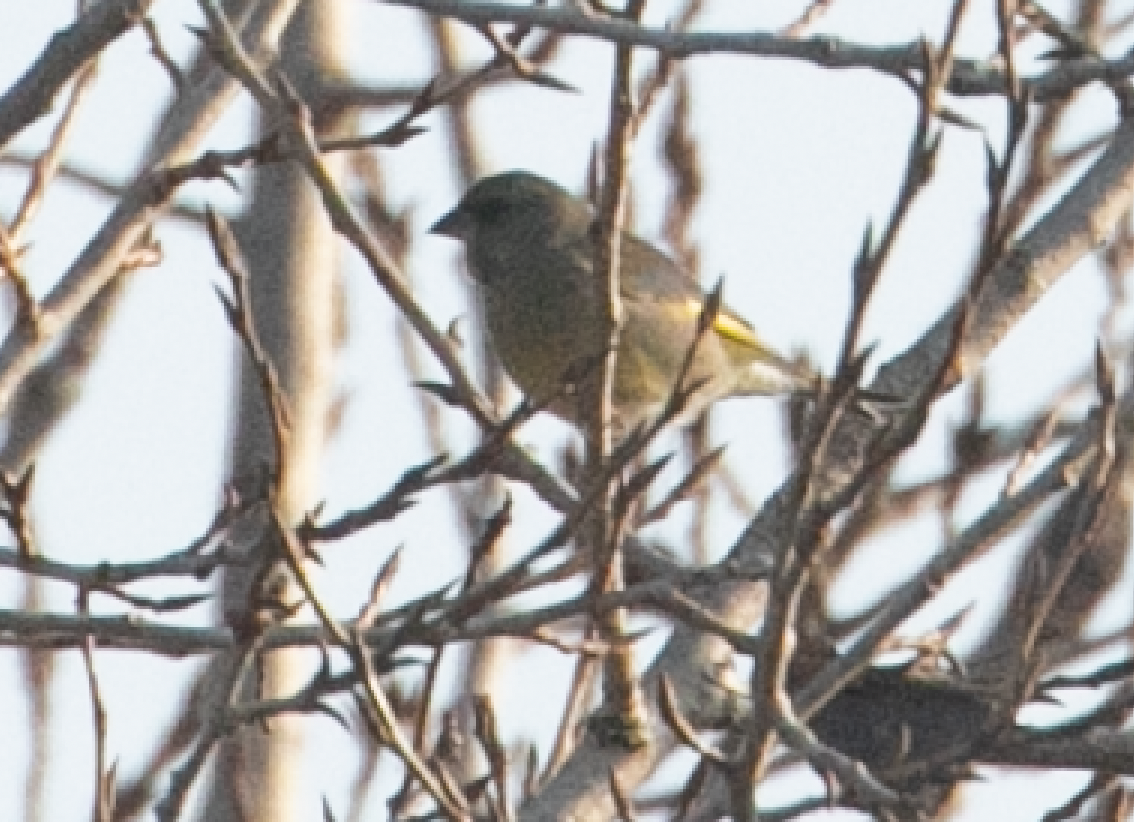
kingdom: Plantae
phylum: Tracheophyta
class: Liliopsida
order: Poales
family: Poaceae
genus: Chloris
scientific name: Chloris chloris
